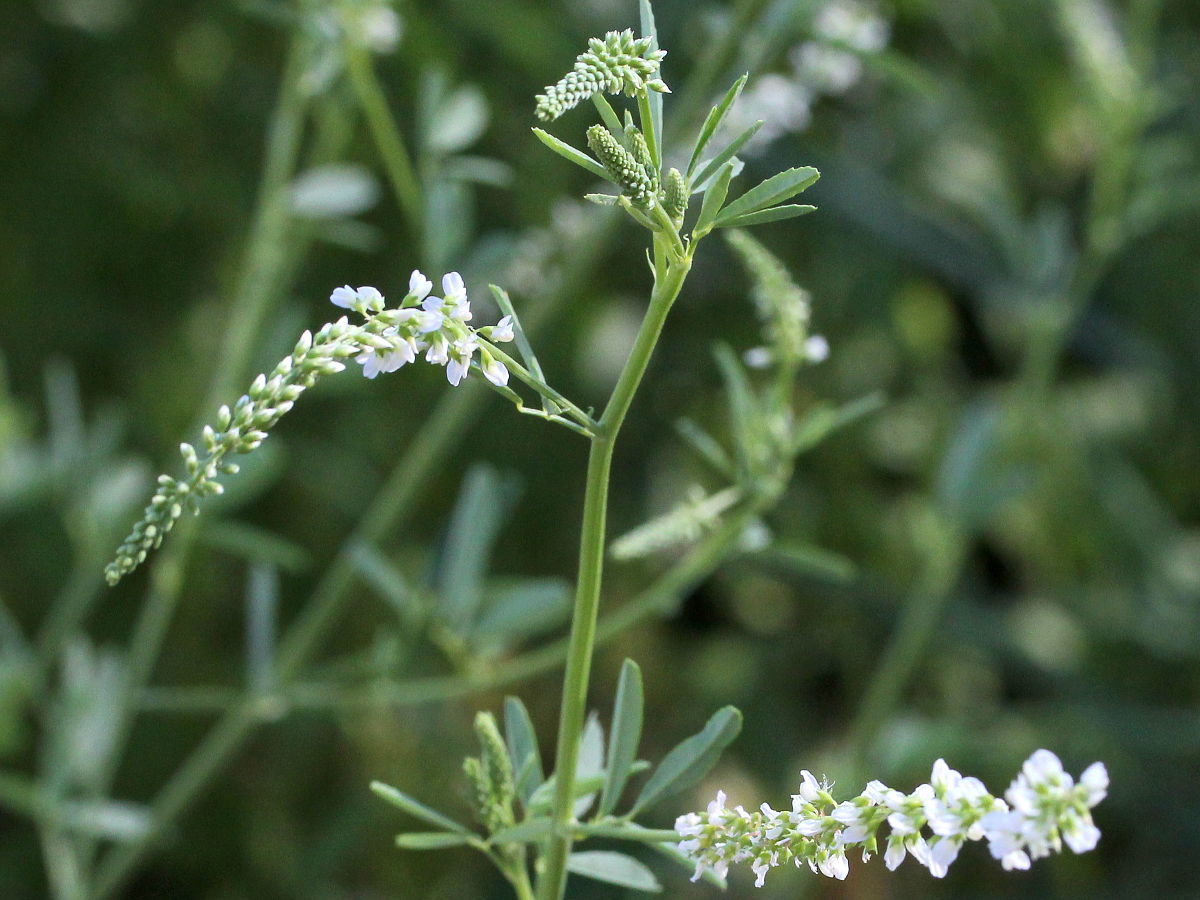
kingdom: Plantae
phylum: Tracheophyta
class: Magnoliopsida
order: Fabales
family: Fabaceae
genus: Melilotus
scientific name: Melilotus albus
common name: White melilot
